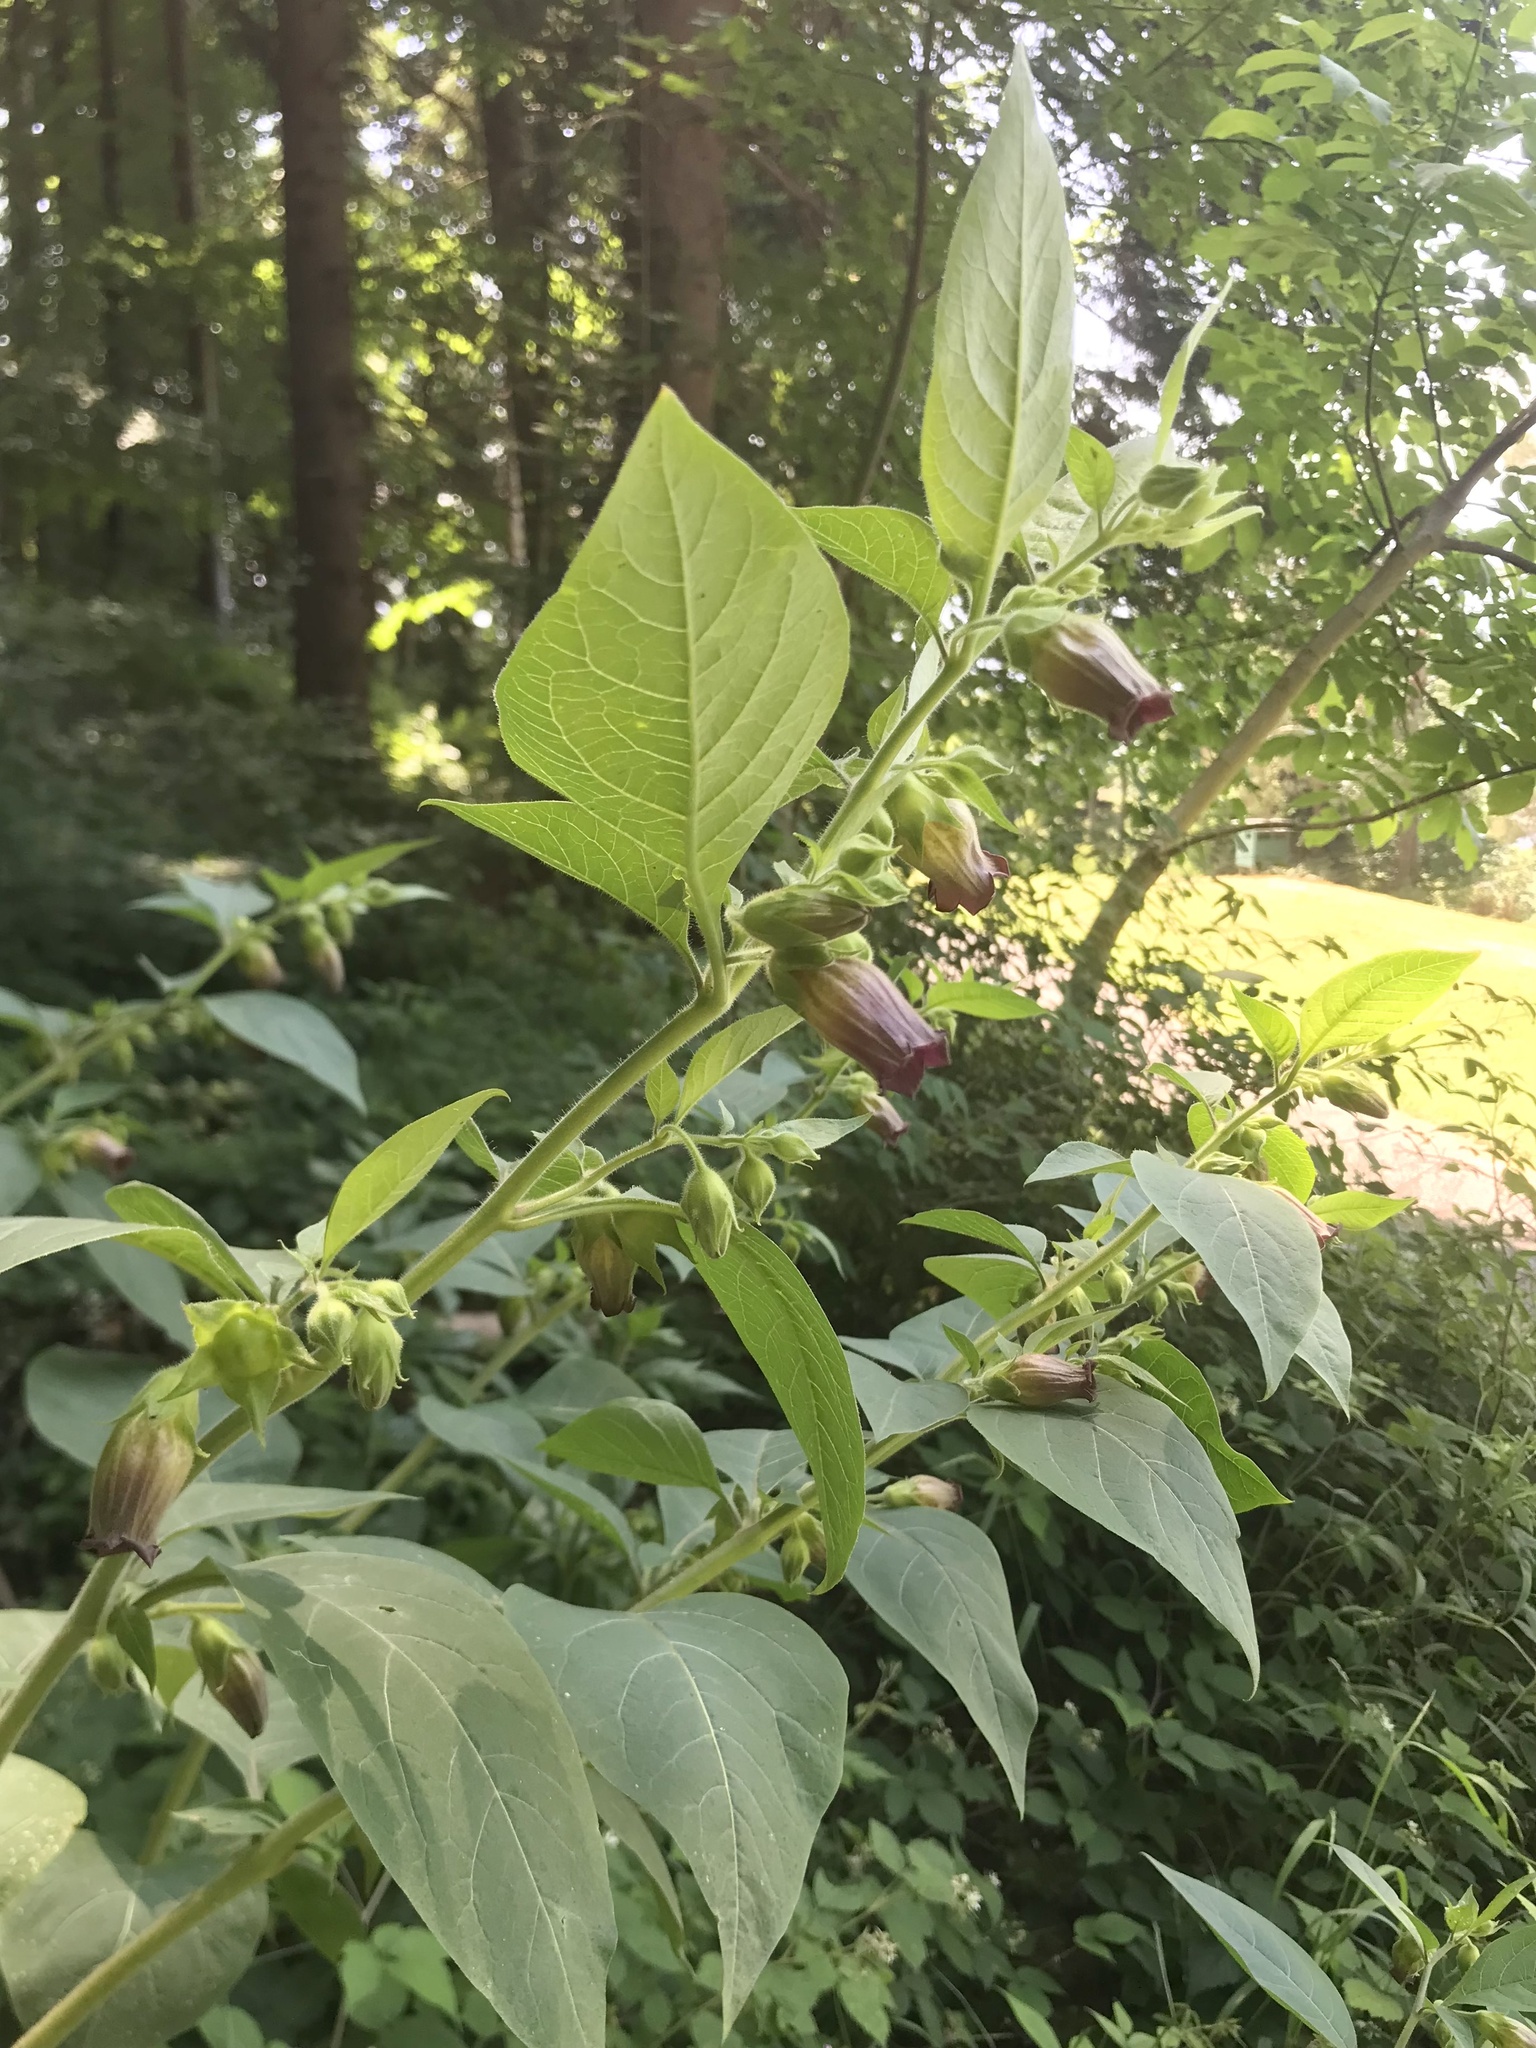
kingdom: Plantae
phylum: Tracheophyta
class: Magnoliopsida
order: Solanales
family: Solanaceae
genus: Atropa
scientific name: Atropa belladonna
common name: Deadly nightshade
